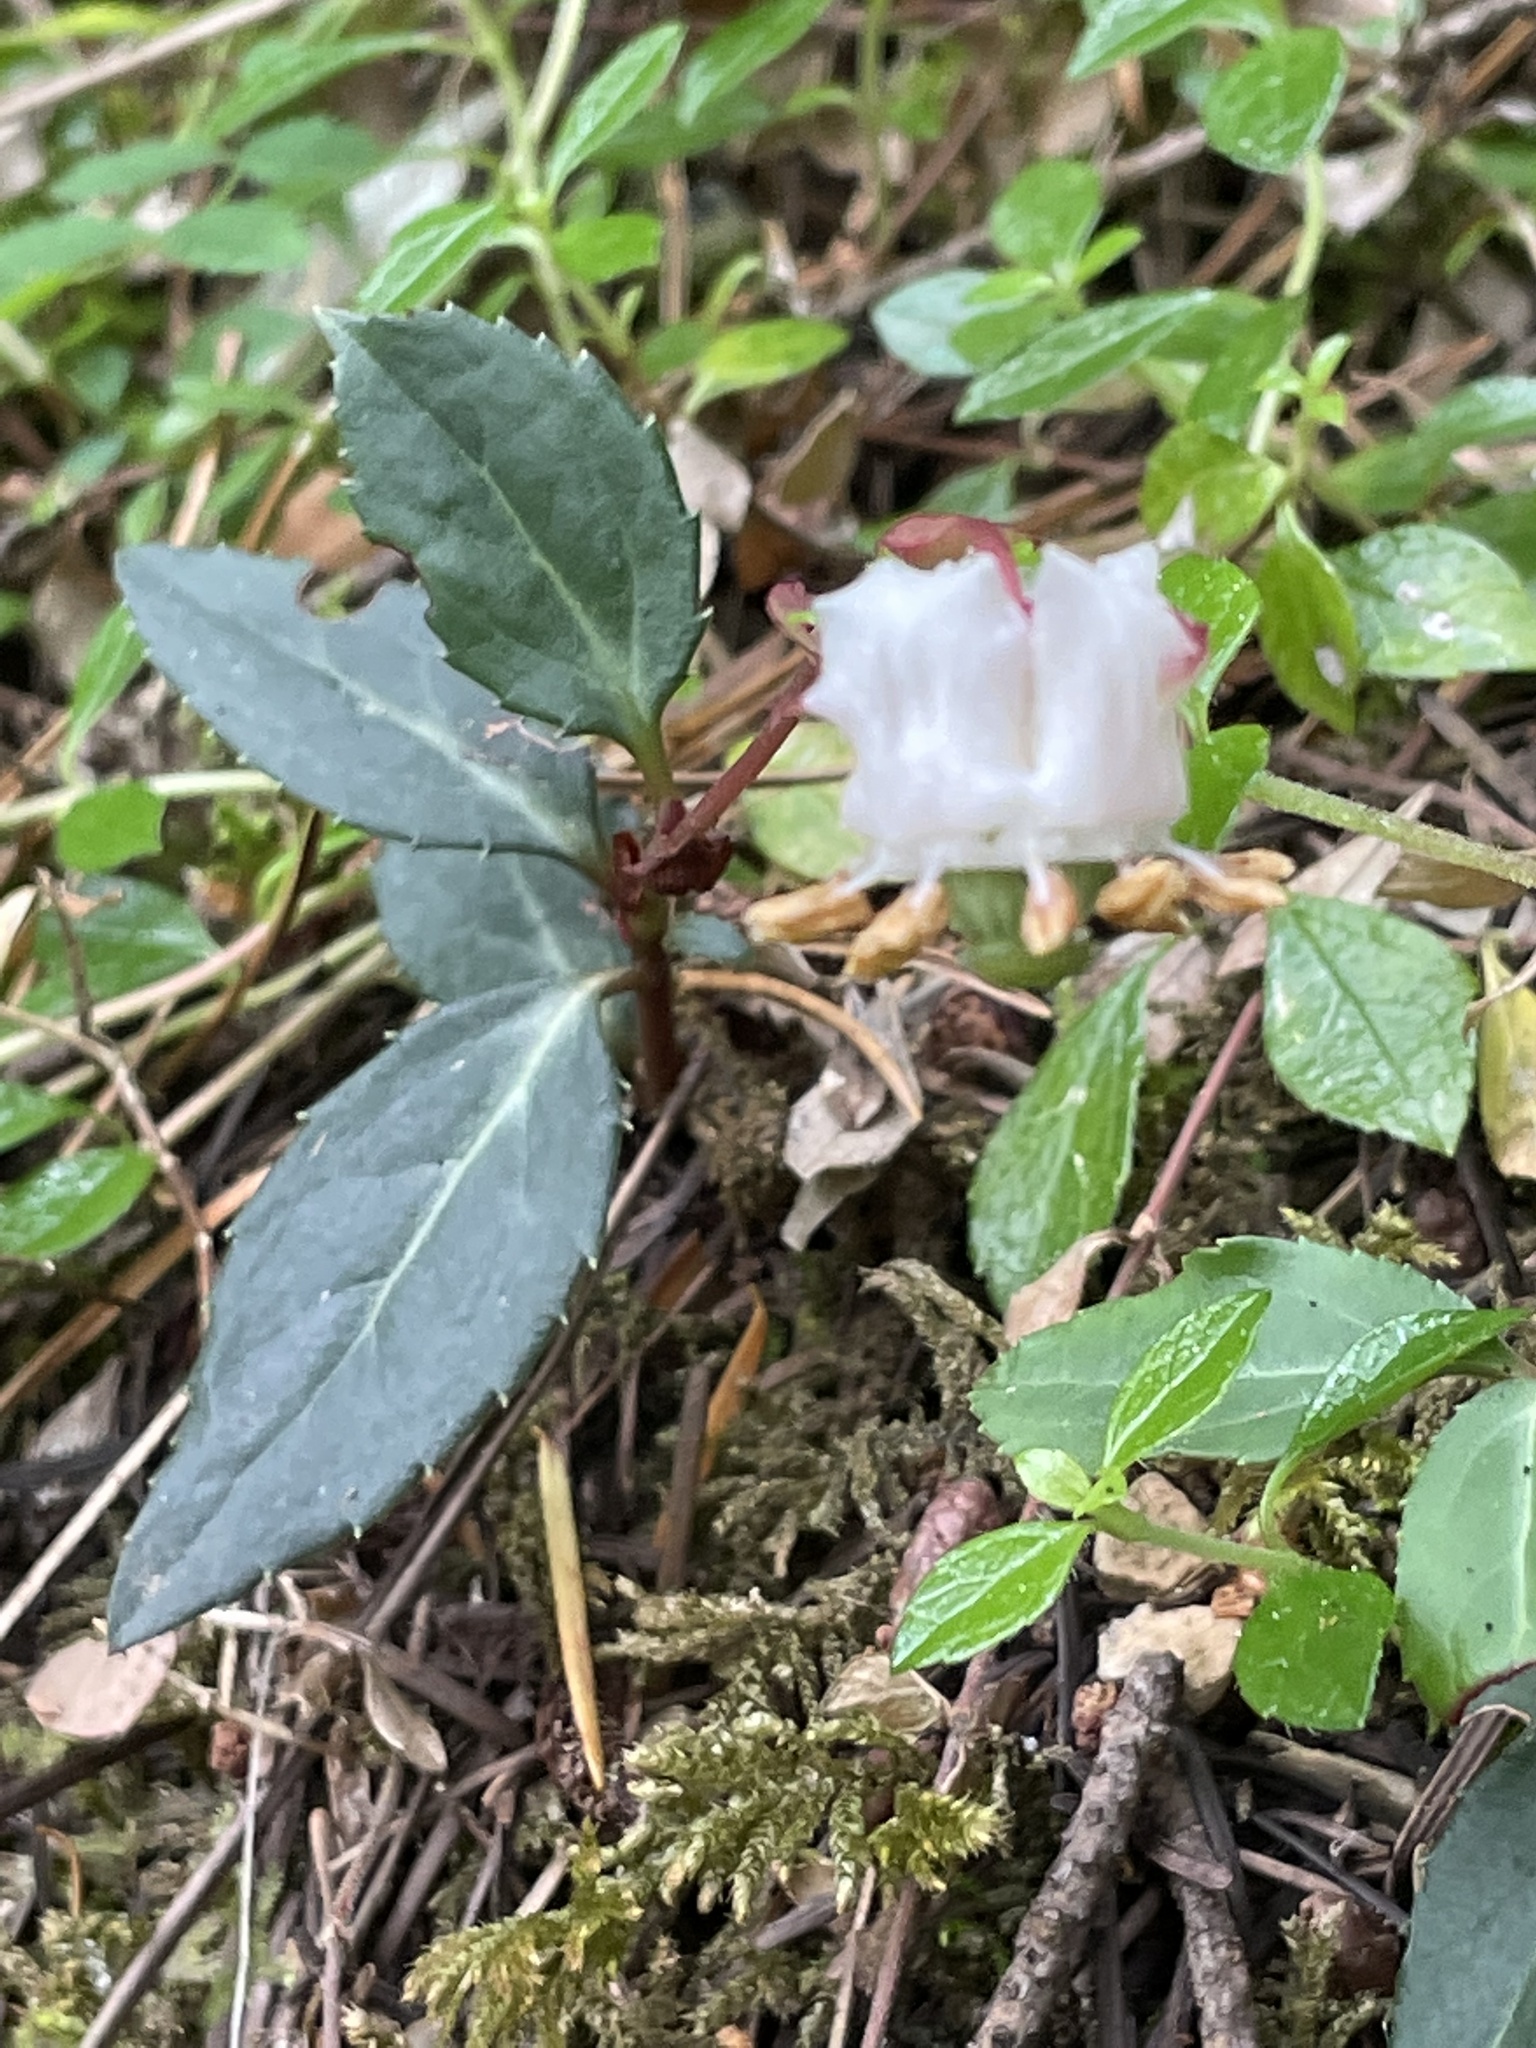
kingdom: Plantae
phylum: Tracheophyta
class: Magnoliopsida
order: Ericales
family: Ericaceae
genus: Chimaphila
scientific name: Chimaphila menziesii
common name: Menzies' pipsissewa
